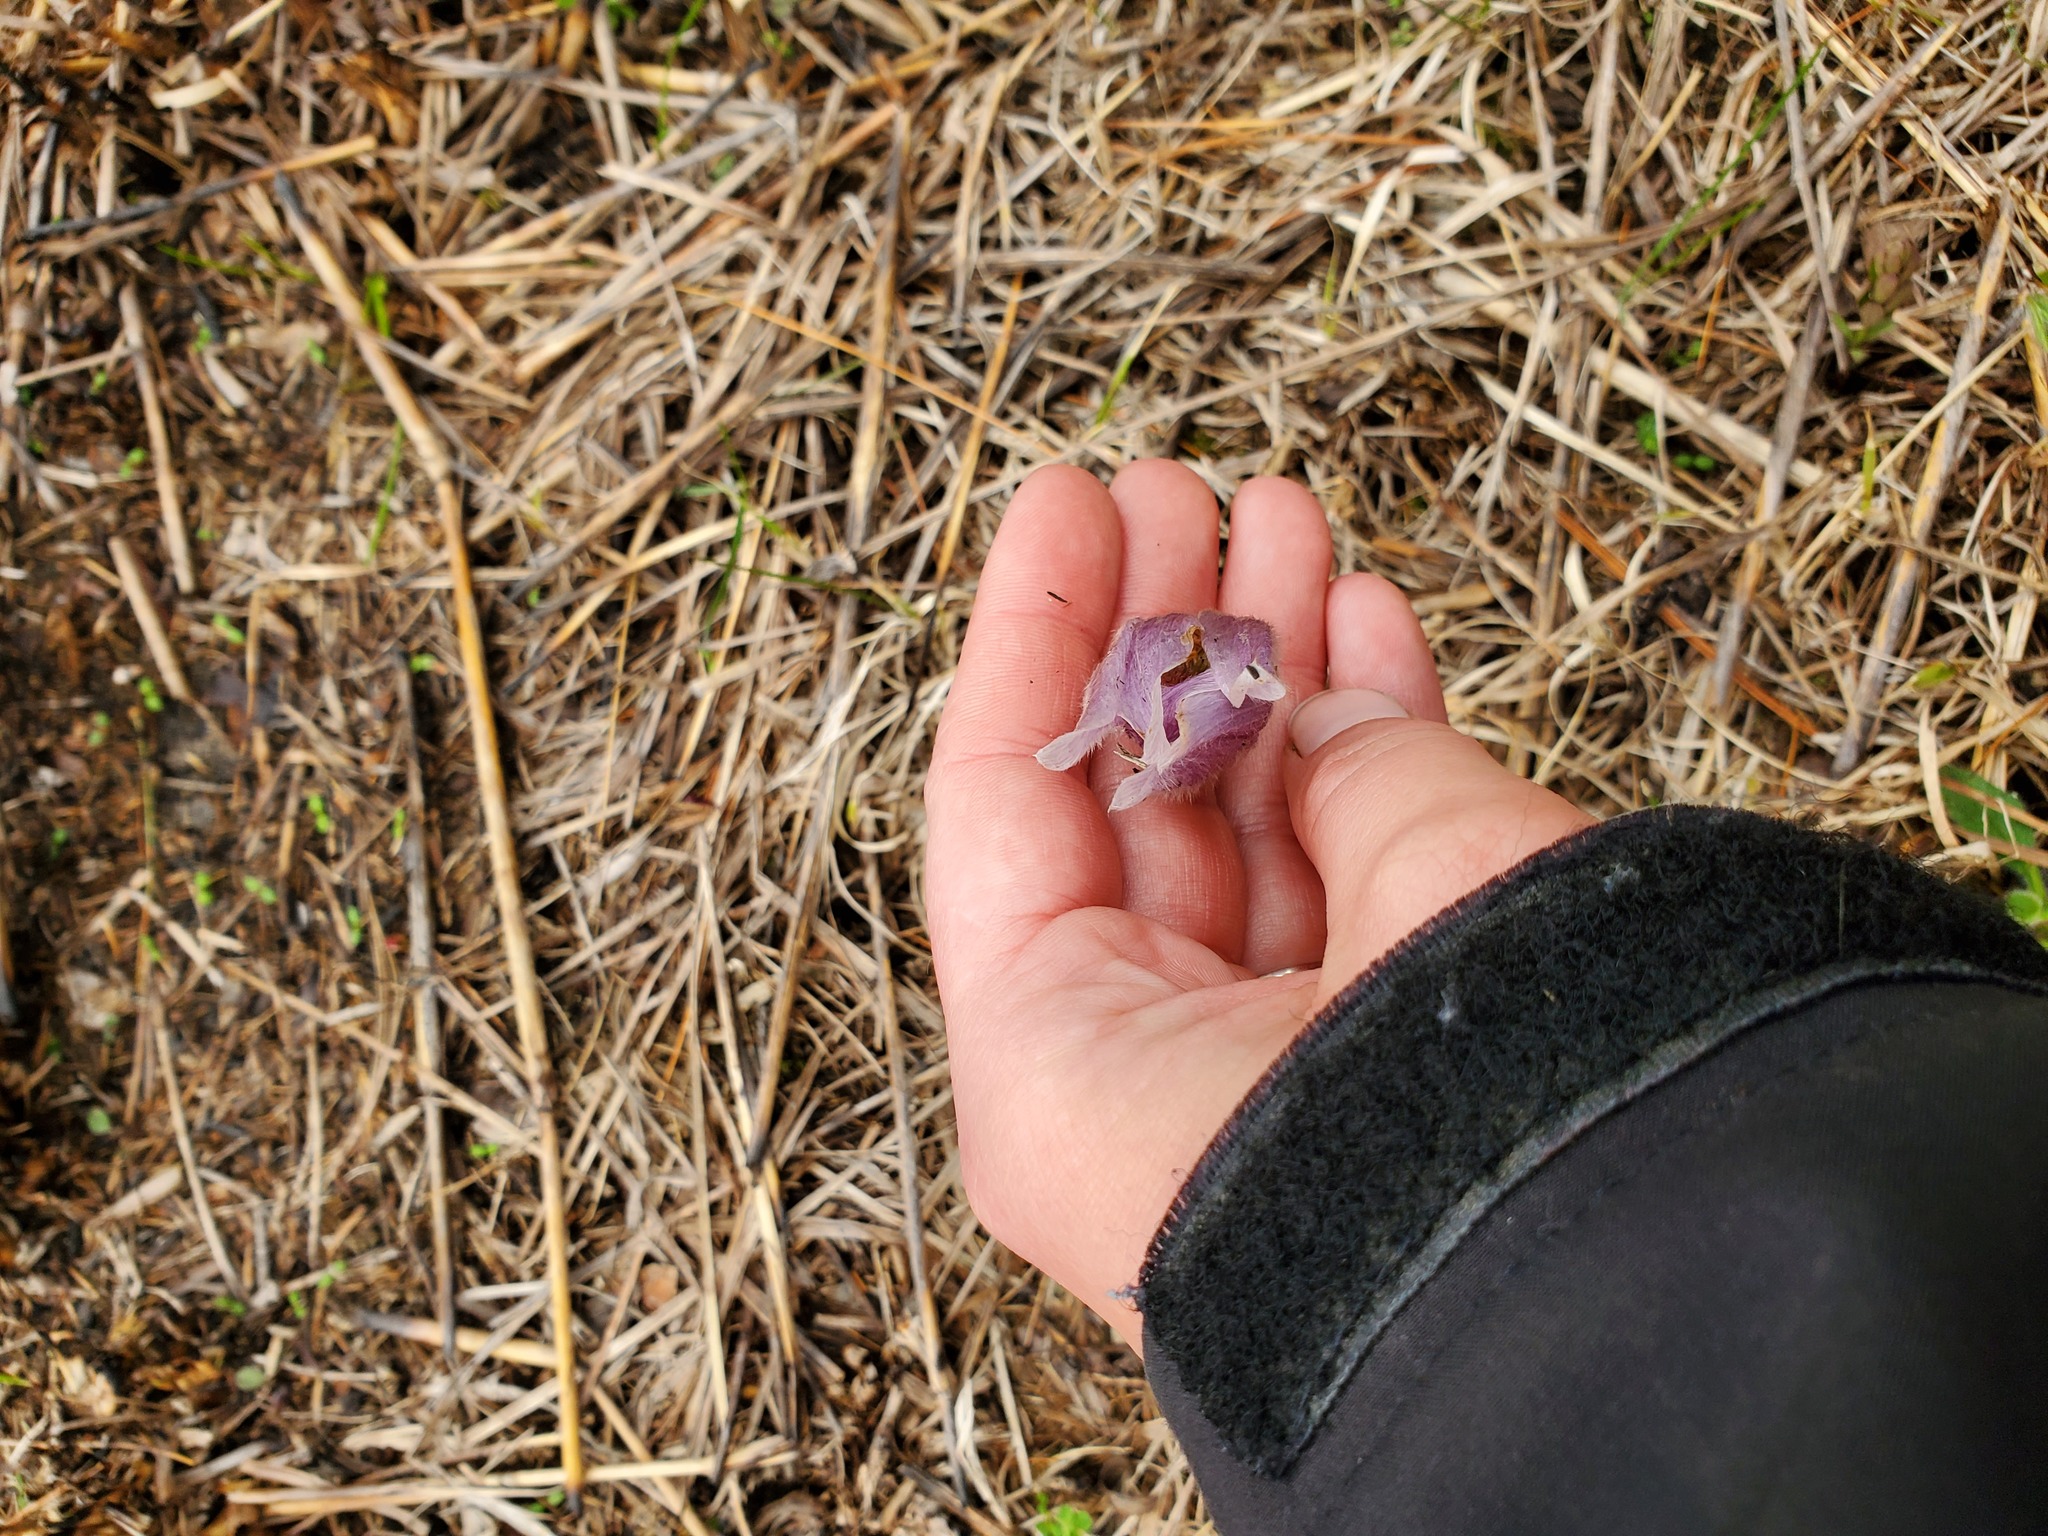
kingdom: Plantae
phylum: Tracheophyta
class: Magnoliopsida
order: Ranunculales
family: Ranunculaceae
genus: Pulsatilla
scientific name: Pulsatilla nuttalliana
